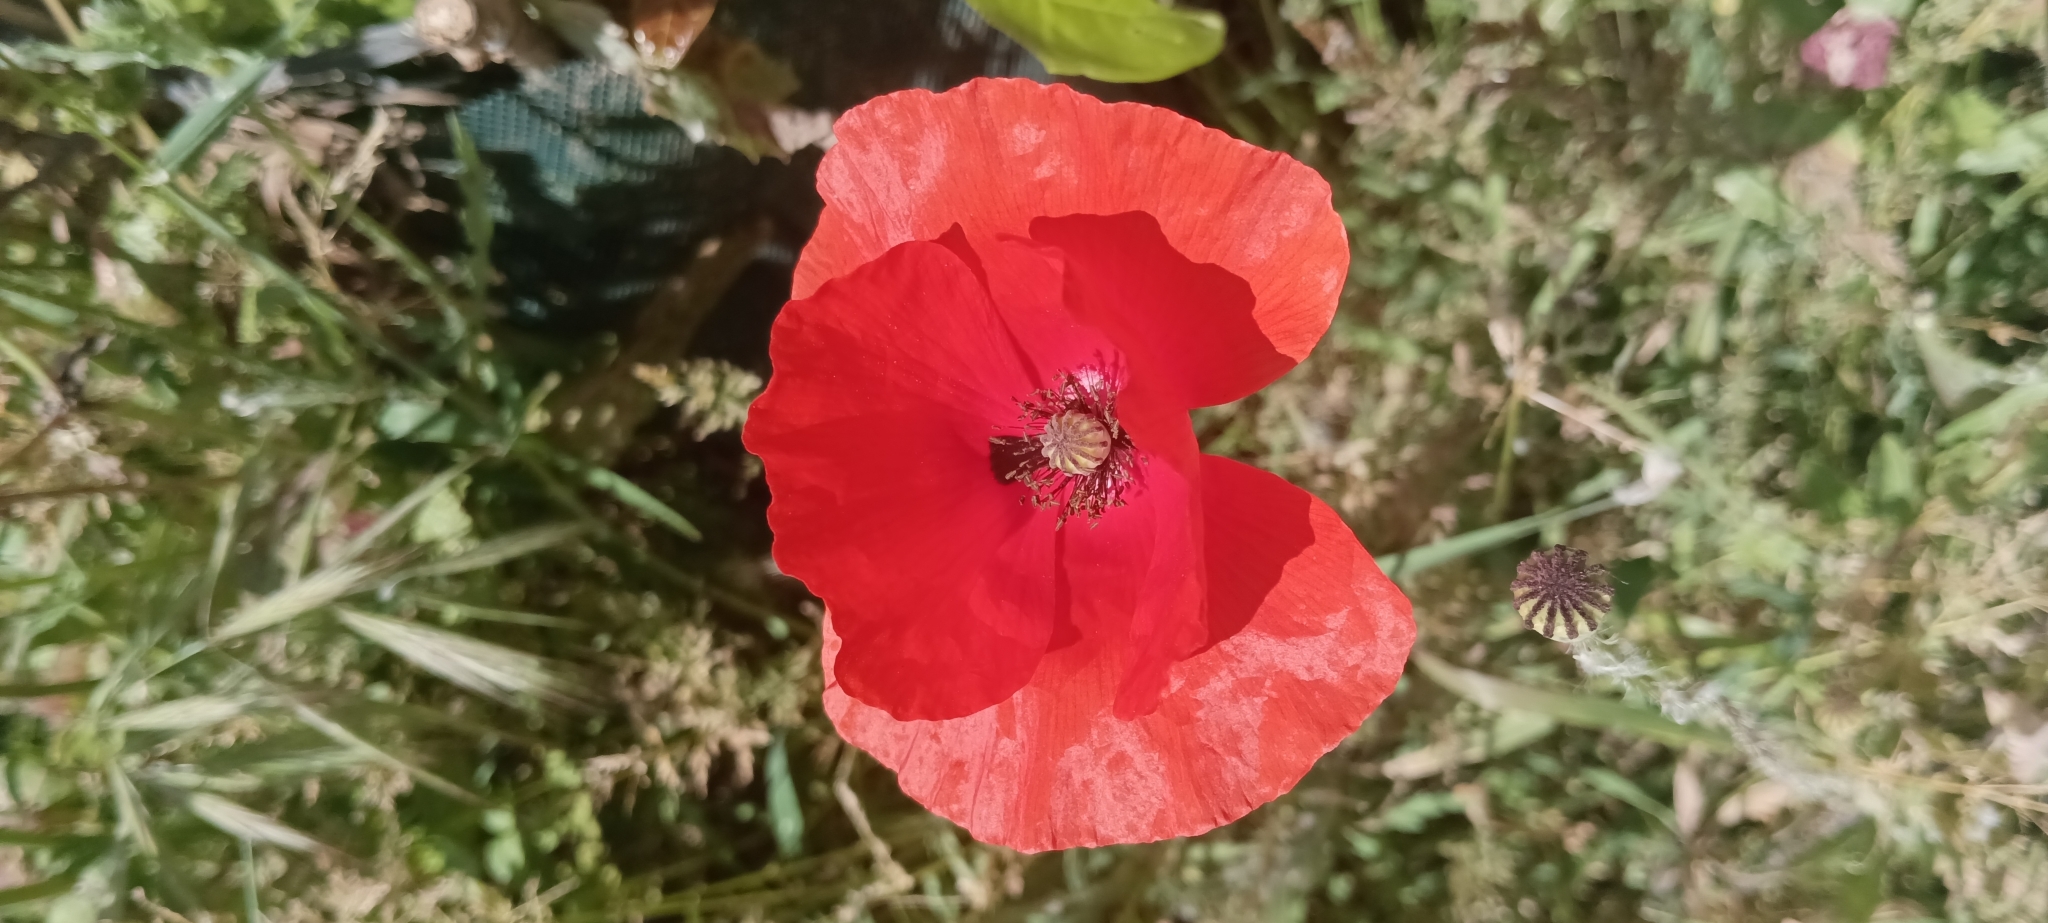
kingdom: Plantae
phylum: Tracheophyta
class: Magnoliopsida
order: Ranunculales
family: Papaveraceae
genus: Papaver
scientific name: Papaver rhoeas
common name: Corn poppy
